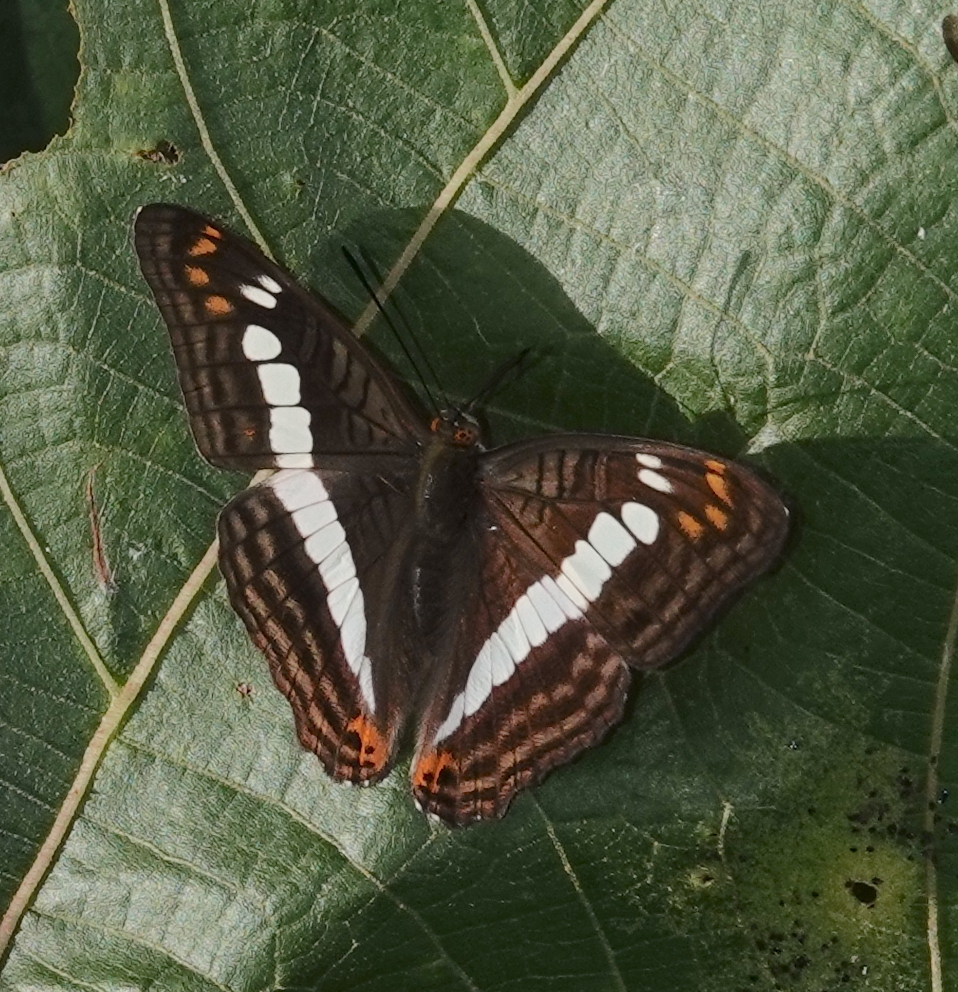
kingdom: Animalia
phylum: Arthropoda
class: Insecta
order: Lepidoptera
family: Nymphalidae
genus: Limenitis
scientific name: Limenitis alala
